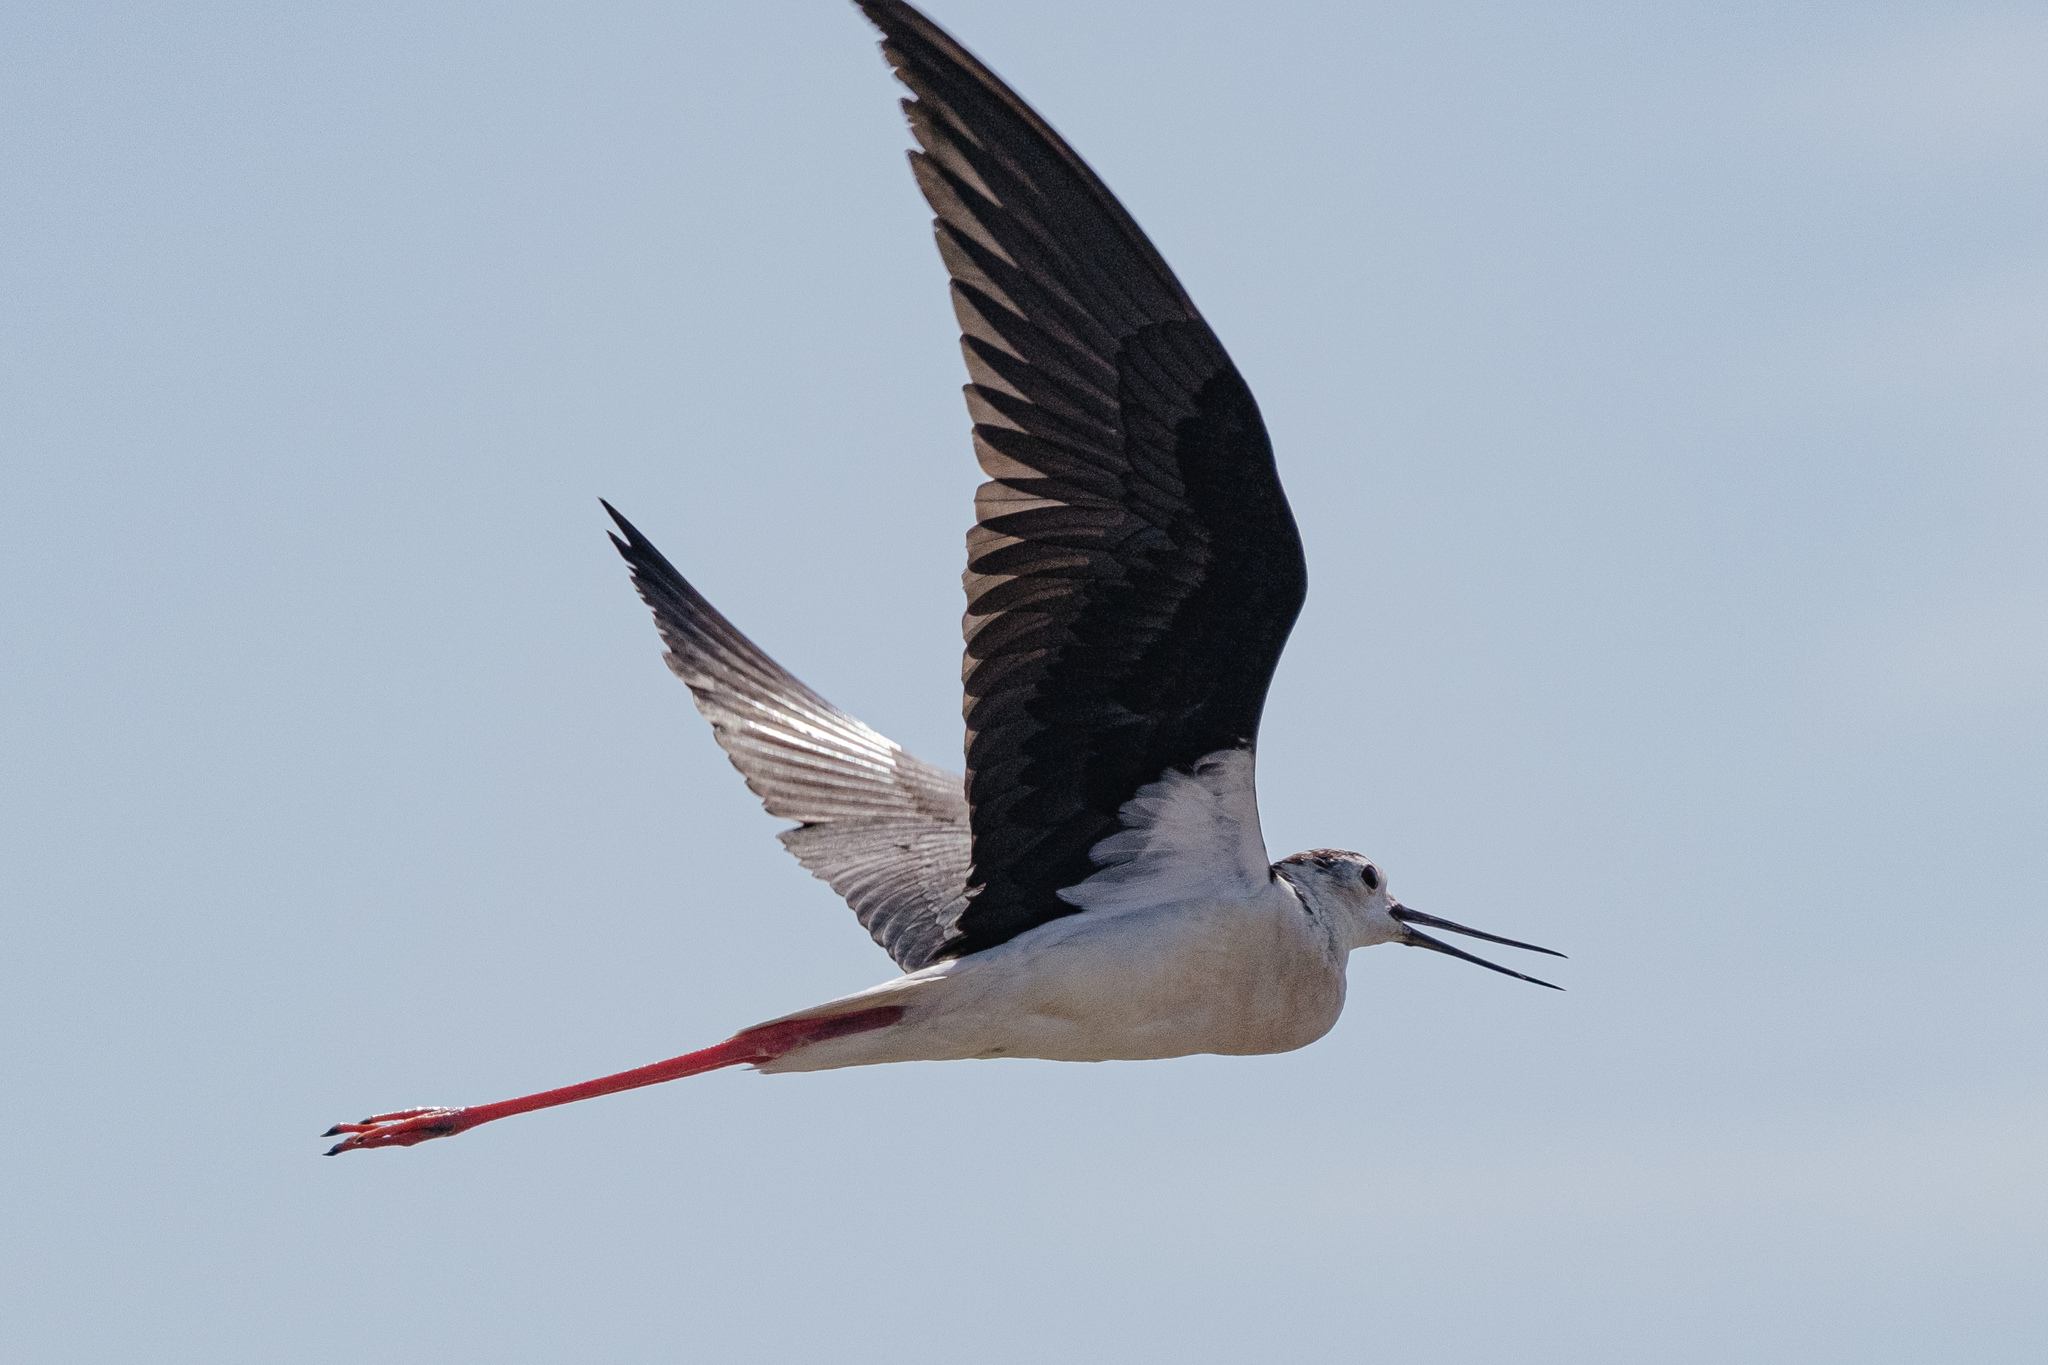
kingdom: Animalia
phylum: Chordata
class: Aves
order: Charadriiformes
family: Recurvirostridae
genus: Himantopus
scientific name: Himantopus himantopus
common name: Black-winged stilt
